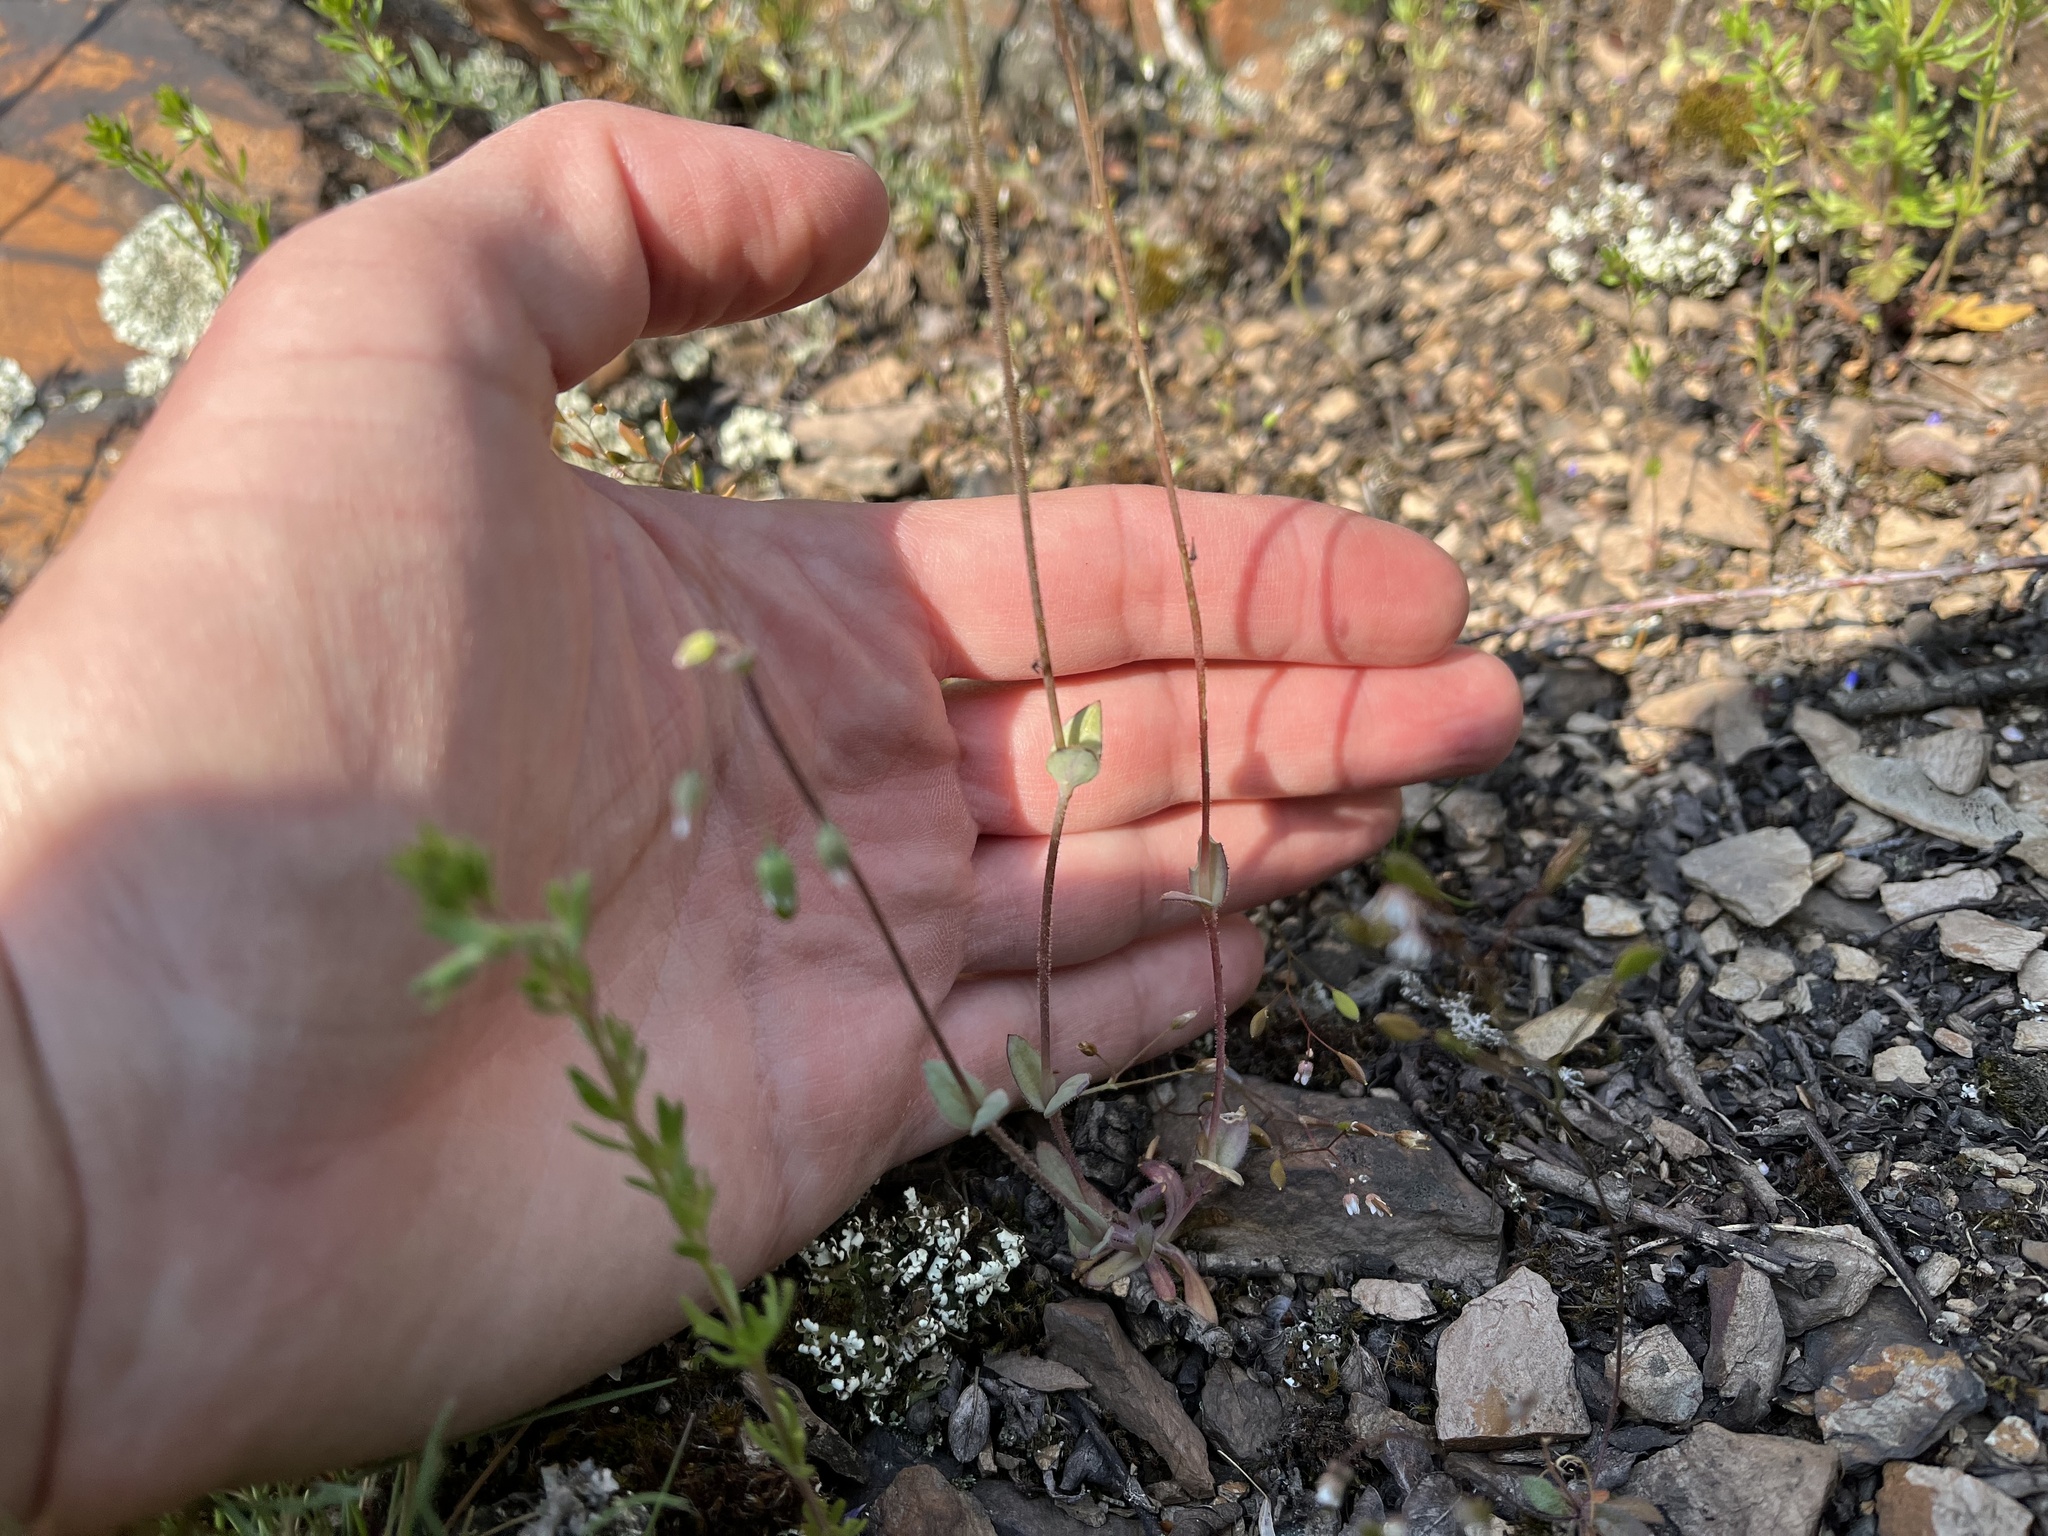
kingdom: Plantae
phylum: Tracheophyta
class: Magnoliopsida
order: Caryophyllales
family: Caryophyllaceae
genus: Holosteum
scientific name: Holosteum umbellatum
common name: Jagged chickweed
